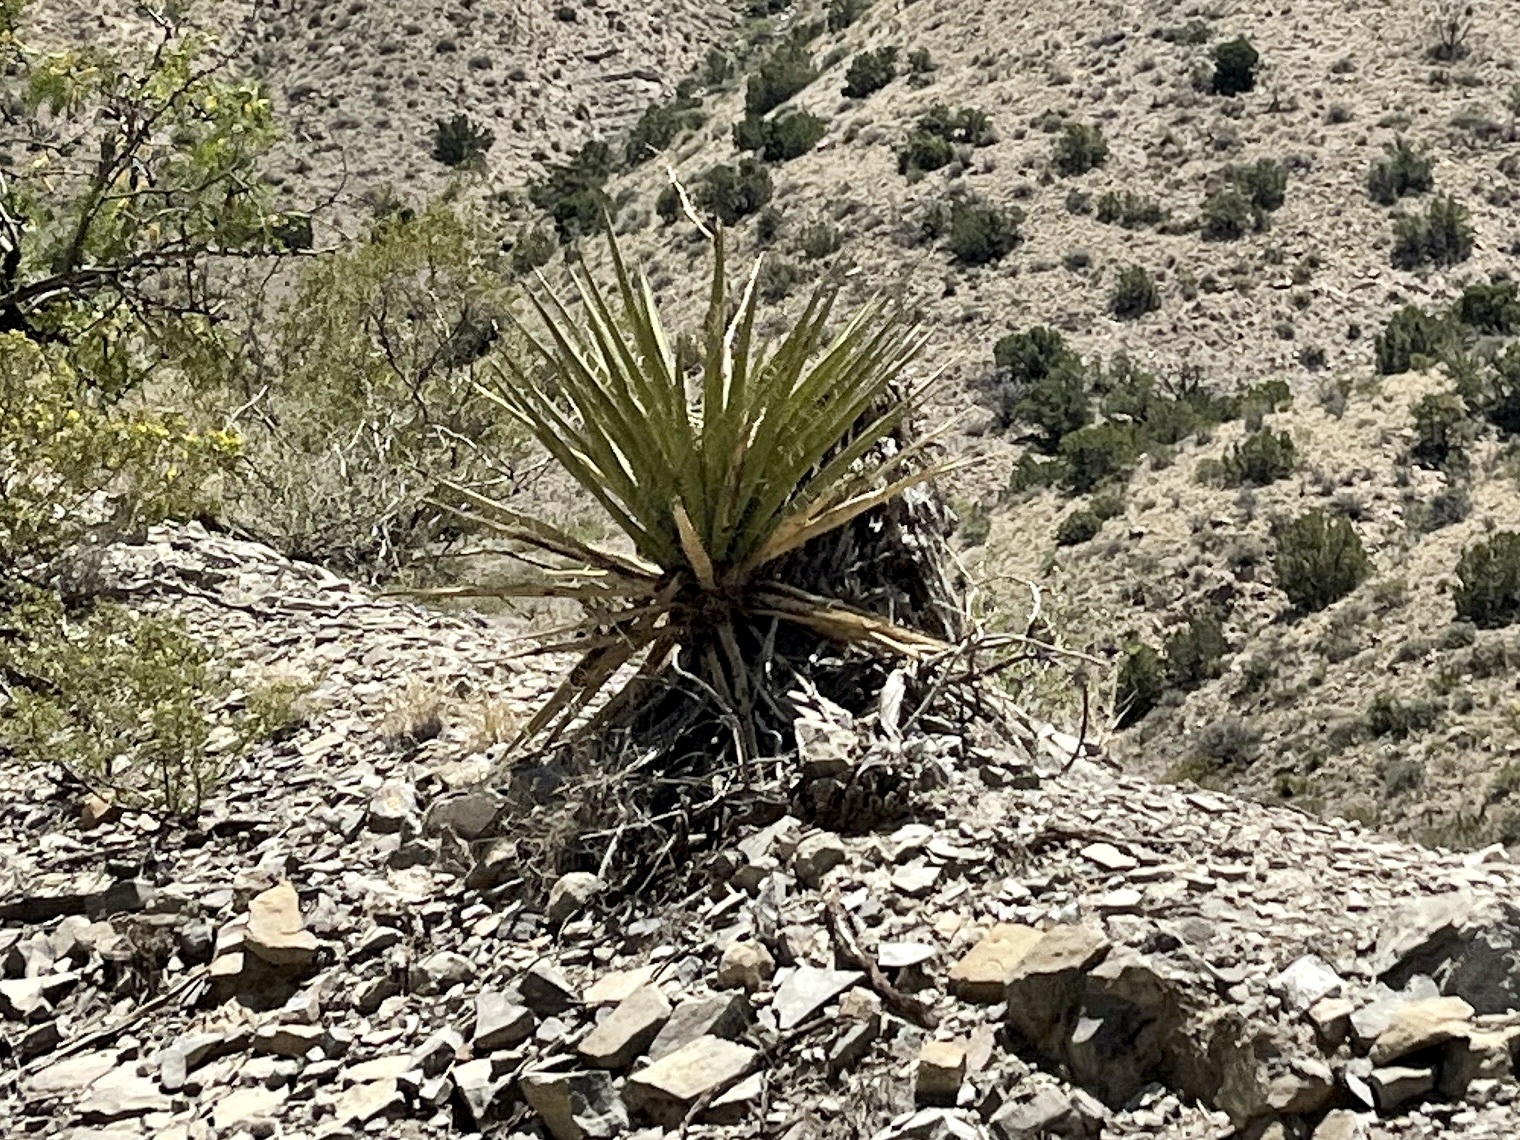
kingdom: Plantae
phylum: Tracheophyta
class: Liliopsida
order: Asparagales
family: Asparagaceae
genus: Yucca
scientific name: Yucca baccata
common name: Banana yucca
